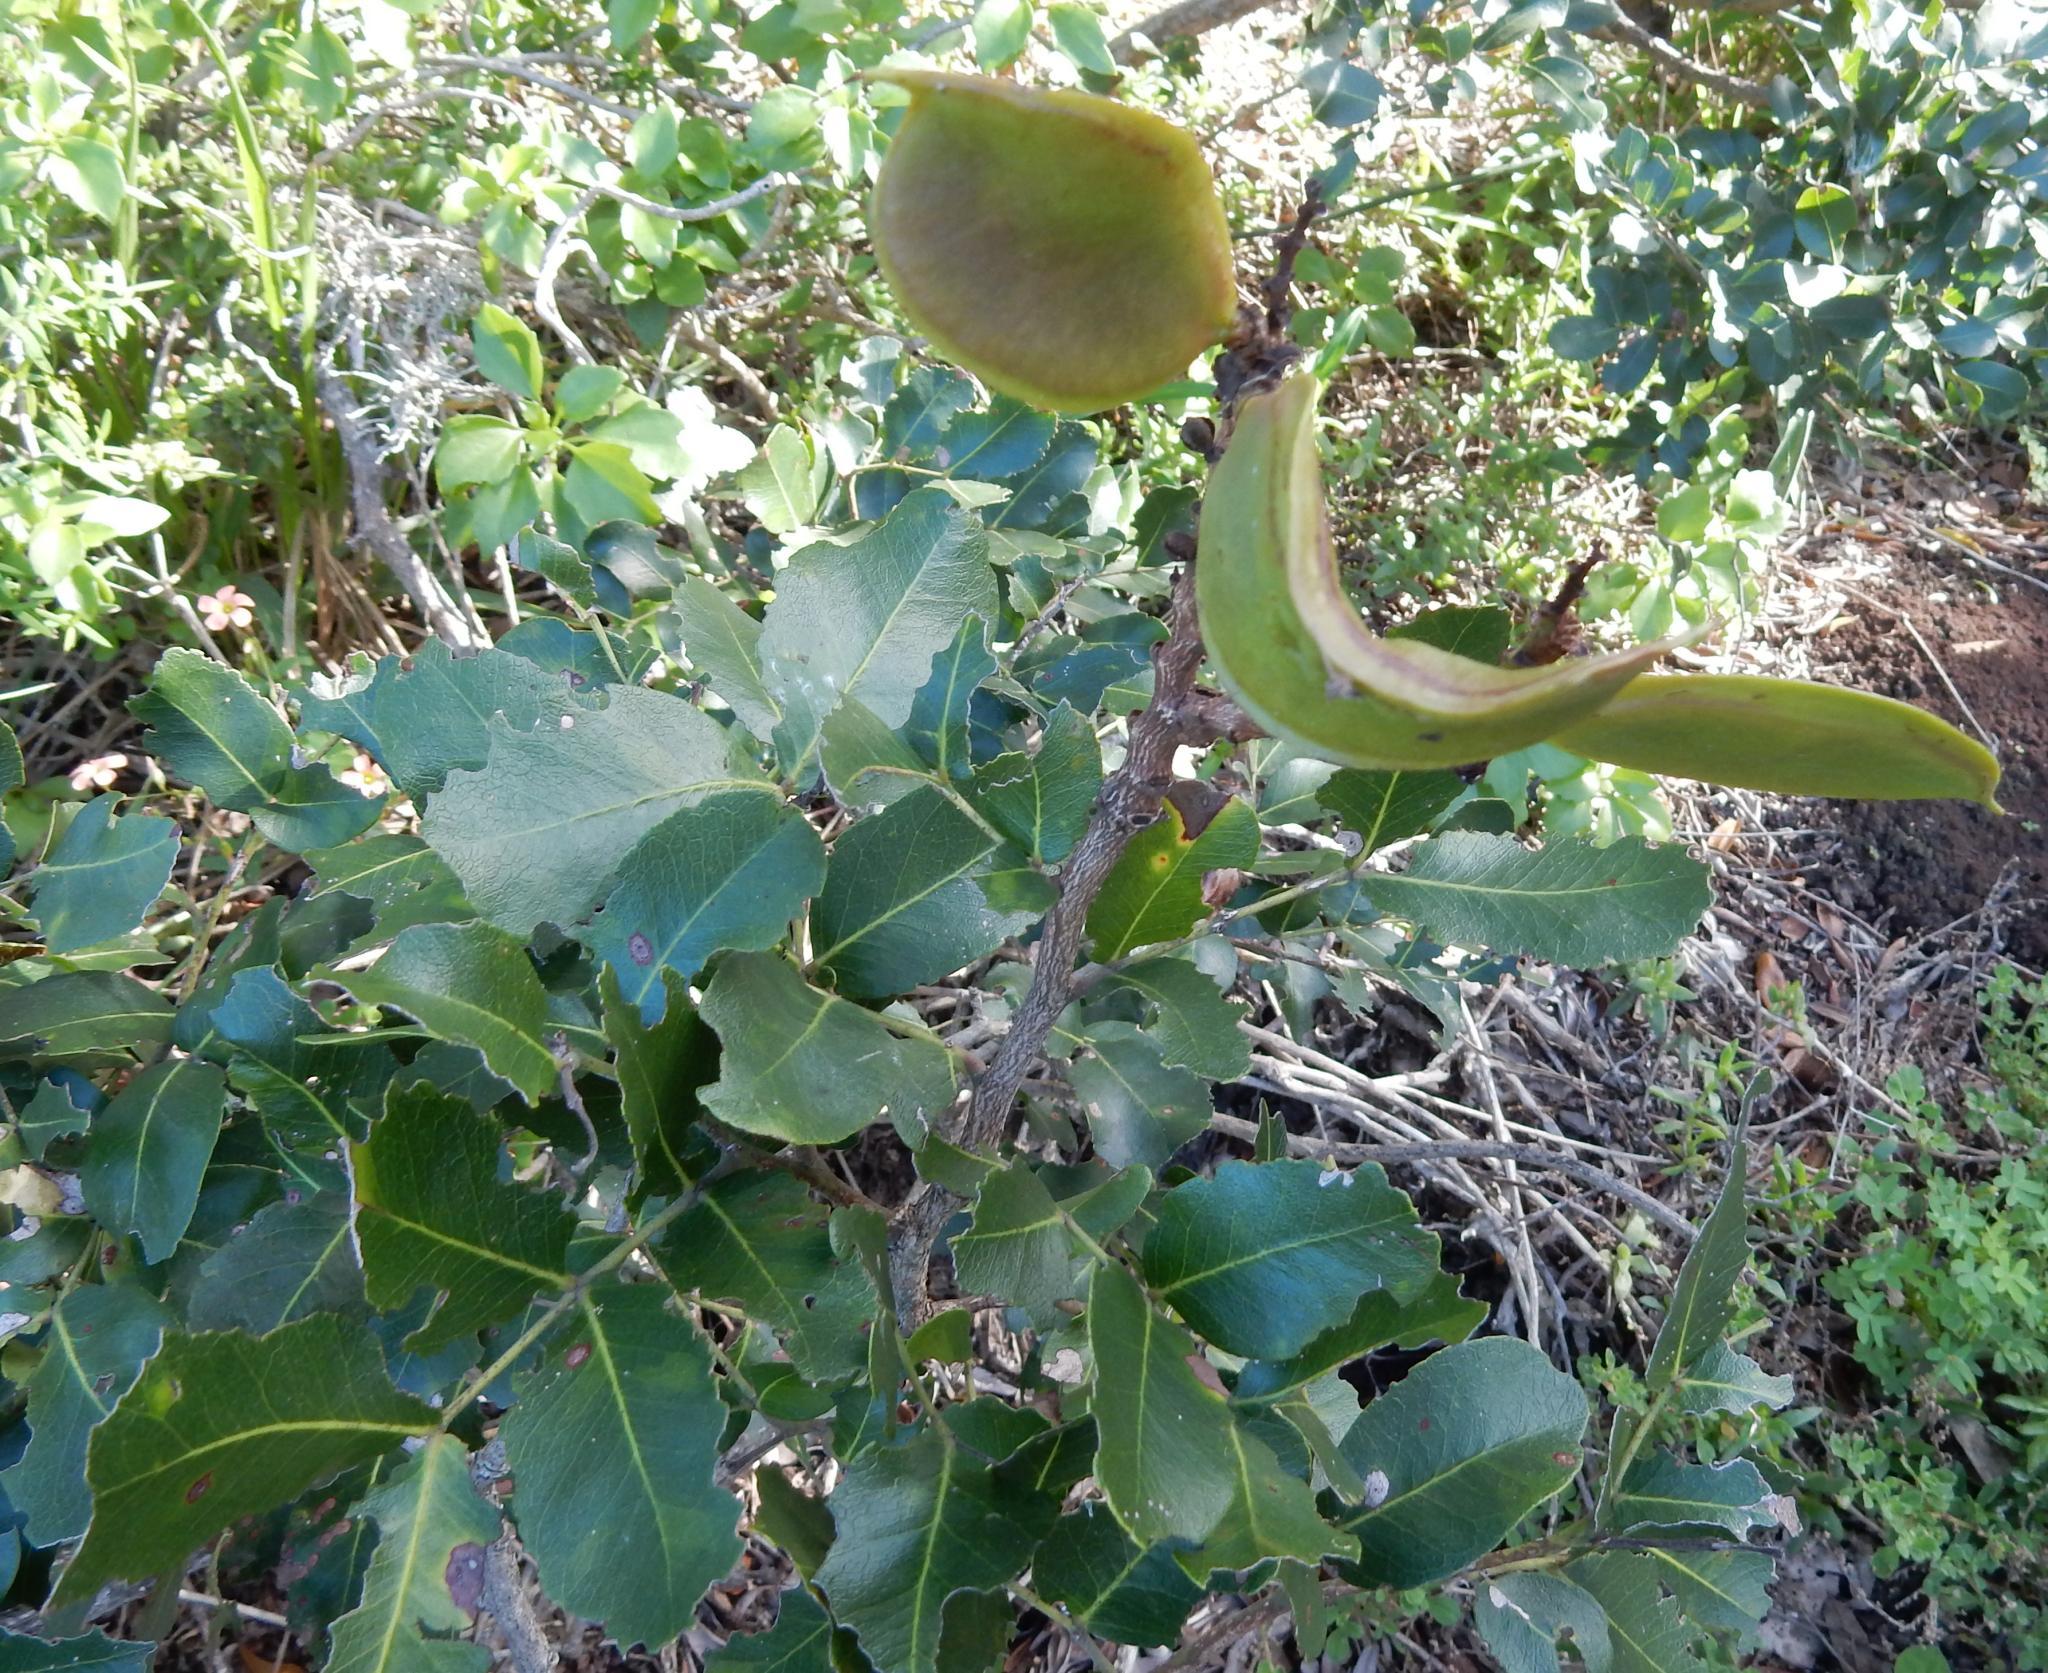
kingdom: Plantae
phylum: Tracheophyta
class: Magnoliopsida
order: Fabales
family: Fabaceae
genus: Schotia
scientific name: Schotia latifolia
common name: Bush boer-bean
